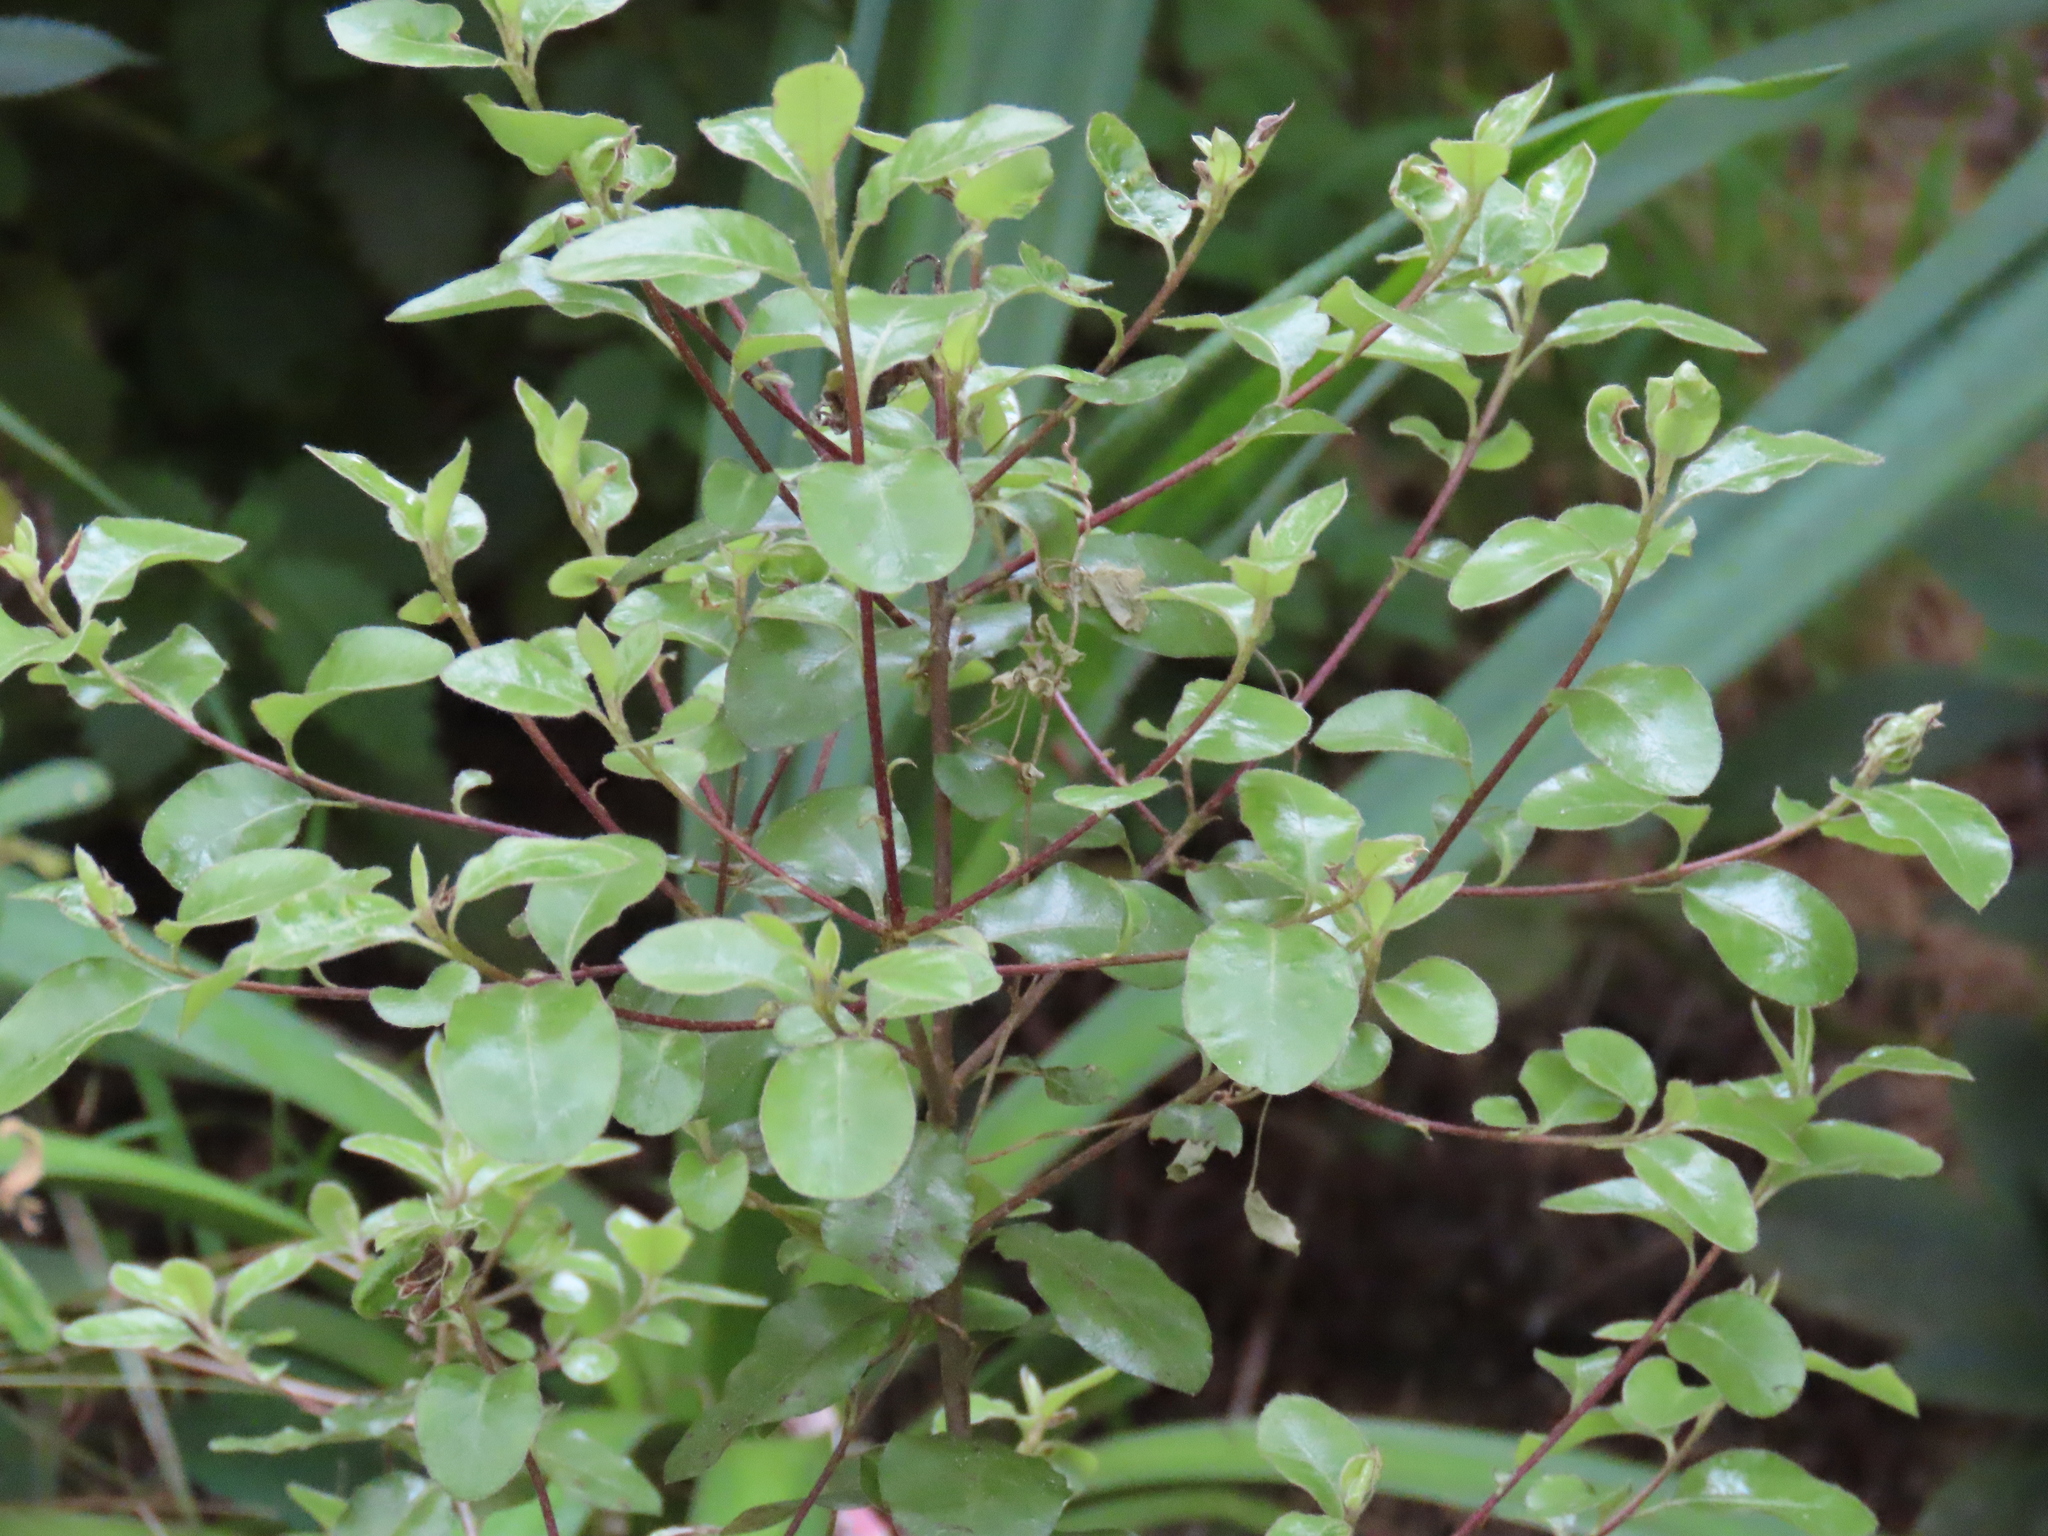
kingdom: Plantae
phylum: Tracheophyta
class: Magnoliopsida
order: Apiales
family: Pittosporaceae
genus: Pittosporum
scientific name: Pittosporum tenuifolium
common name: Kohuhu
